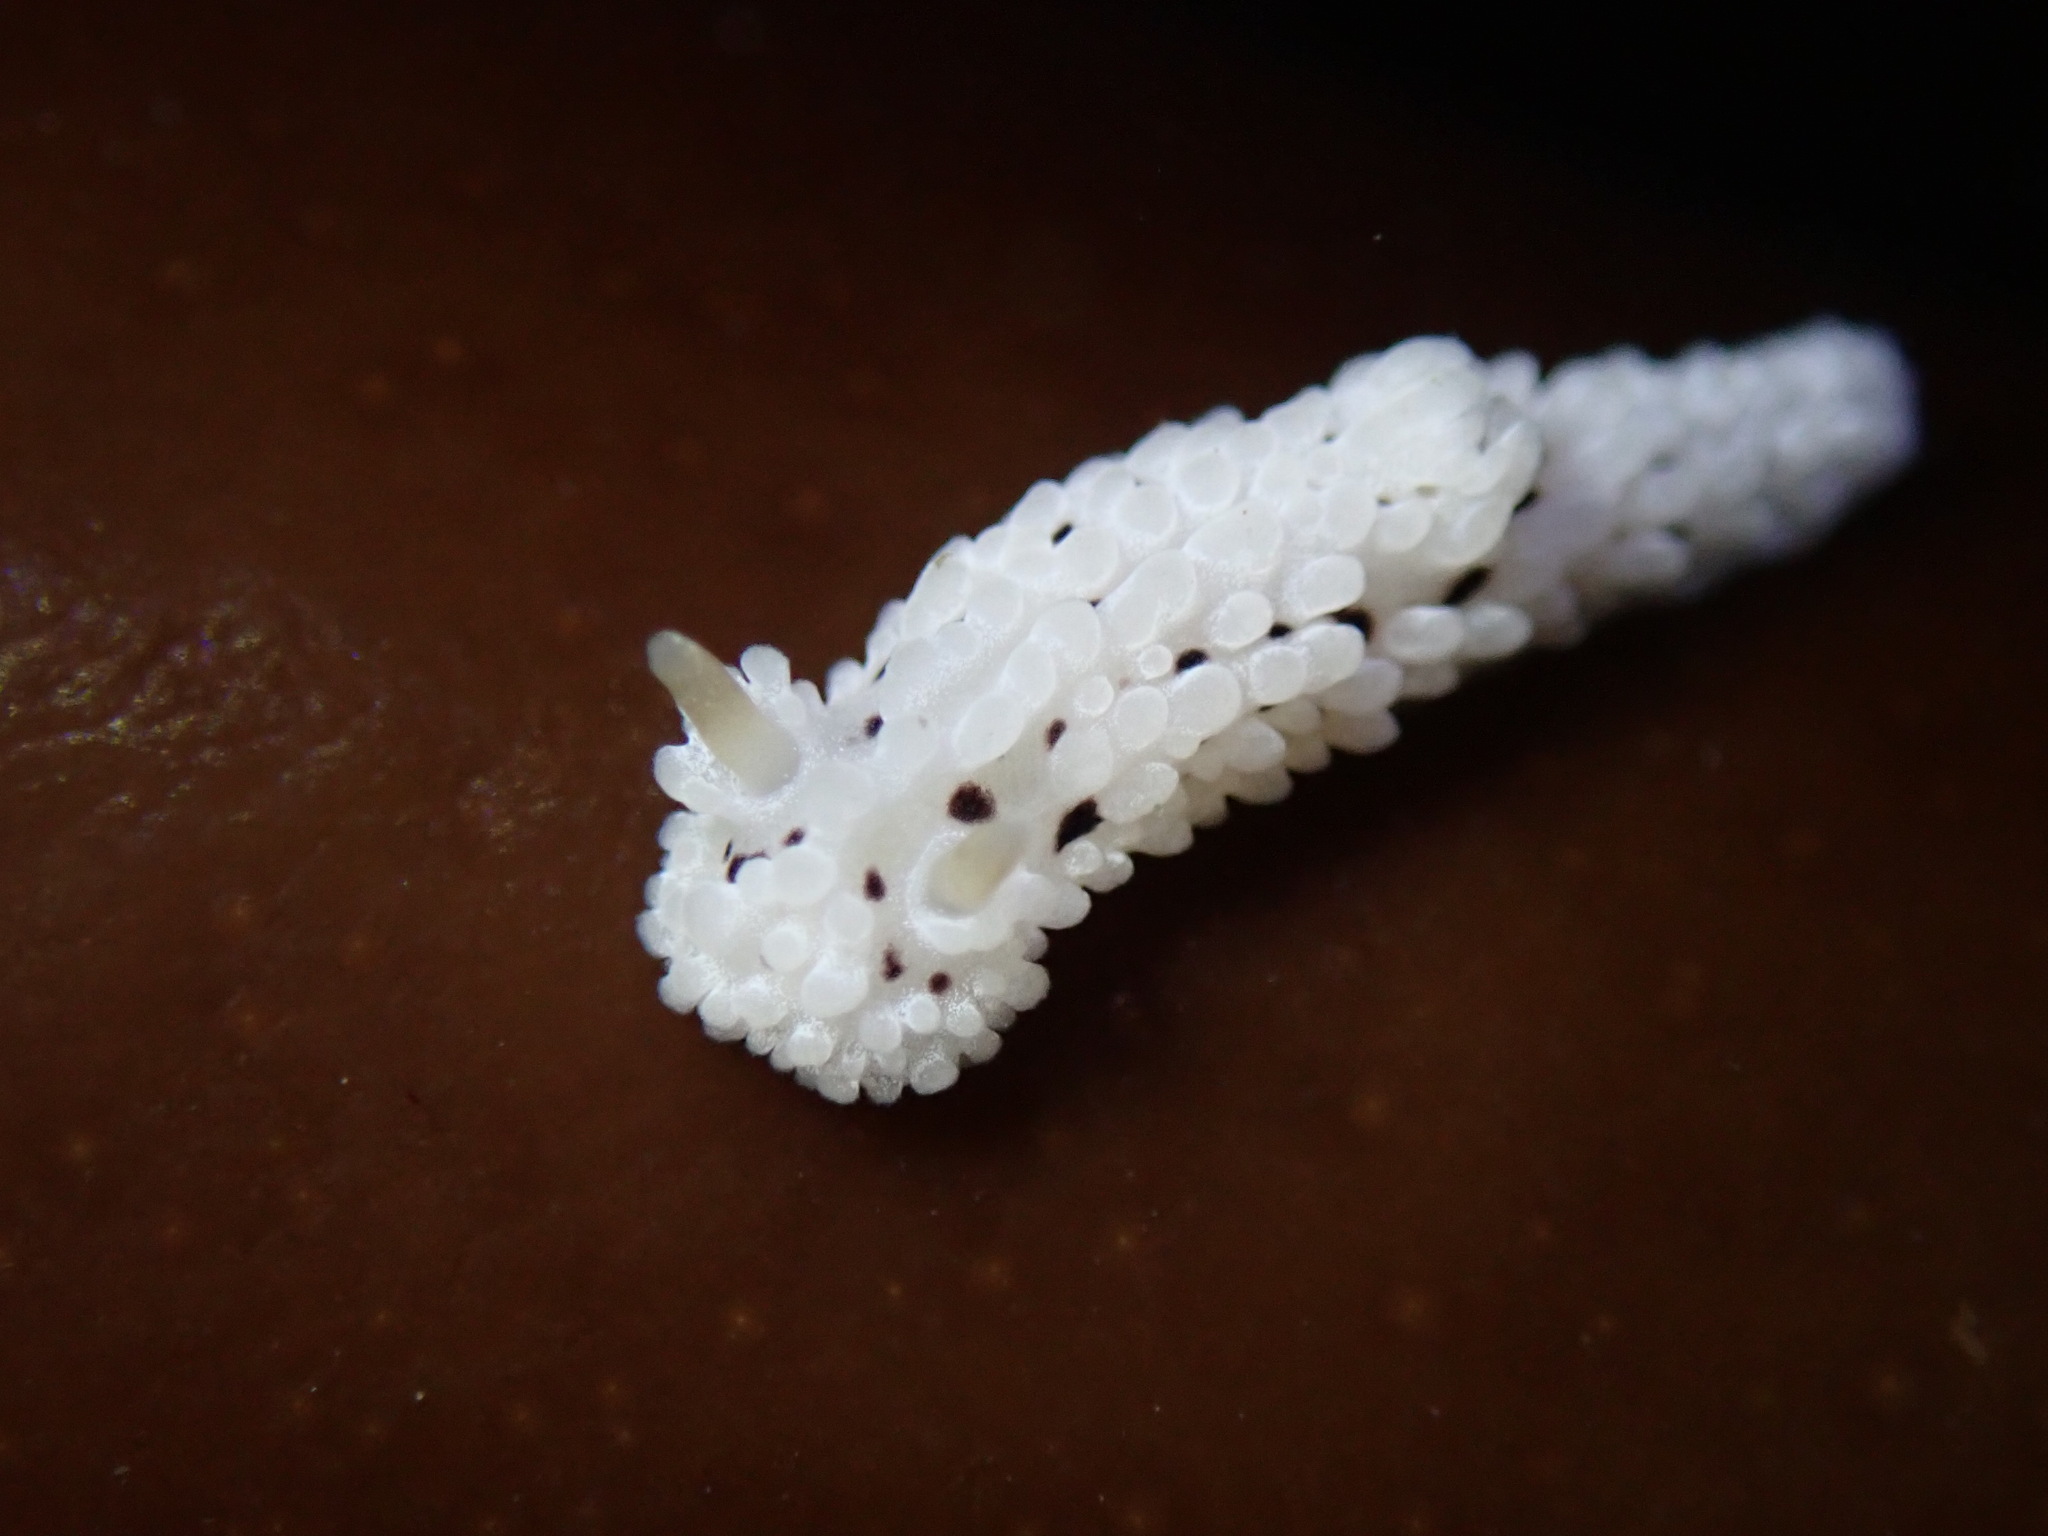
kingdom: Animalia
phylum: Mollusca
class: Gastropoda
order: Nudibranchia
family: Aegiridae
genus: Aegires
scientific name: Aegires albopunctatus
